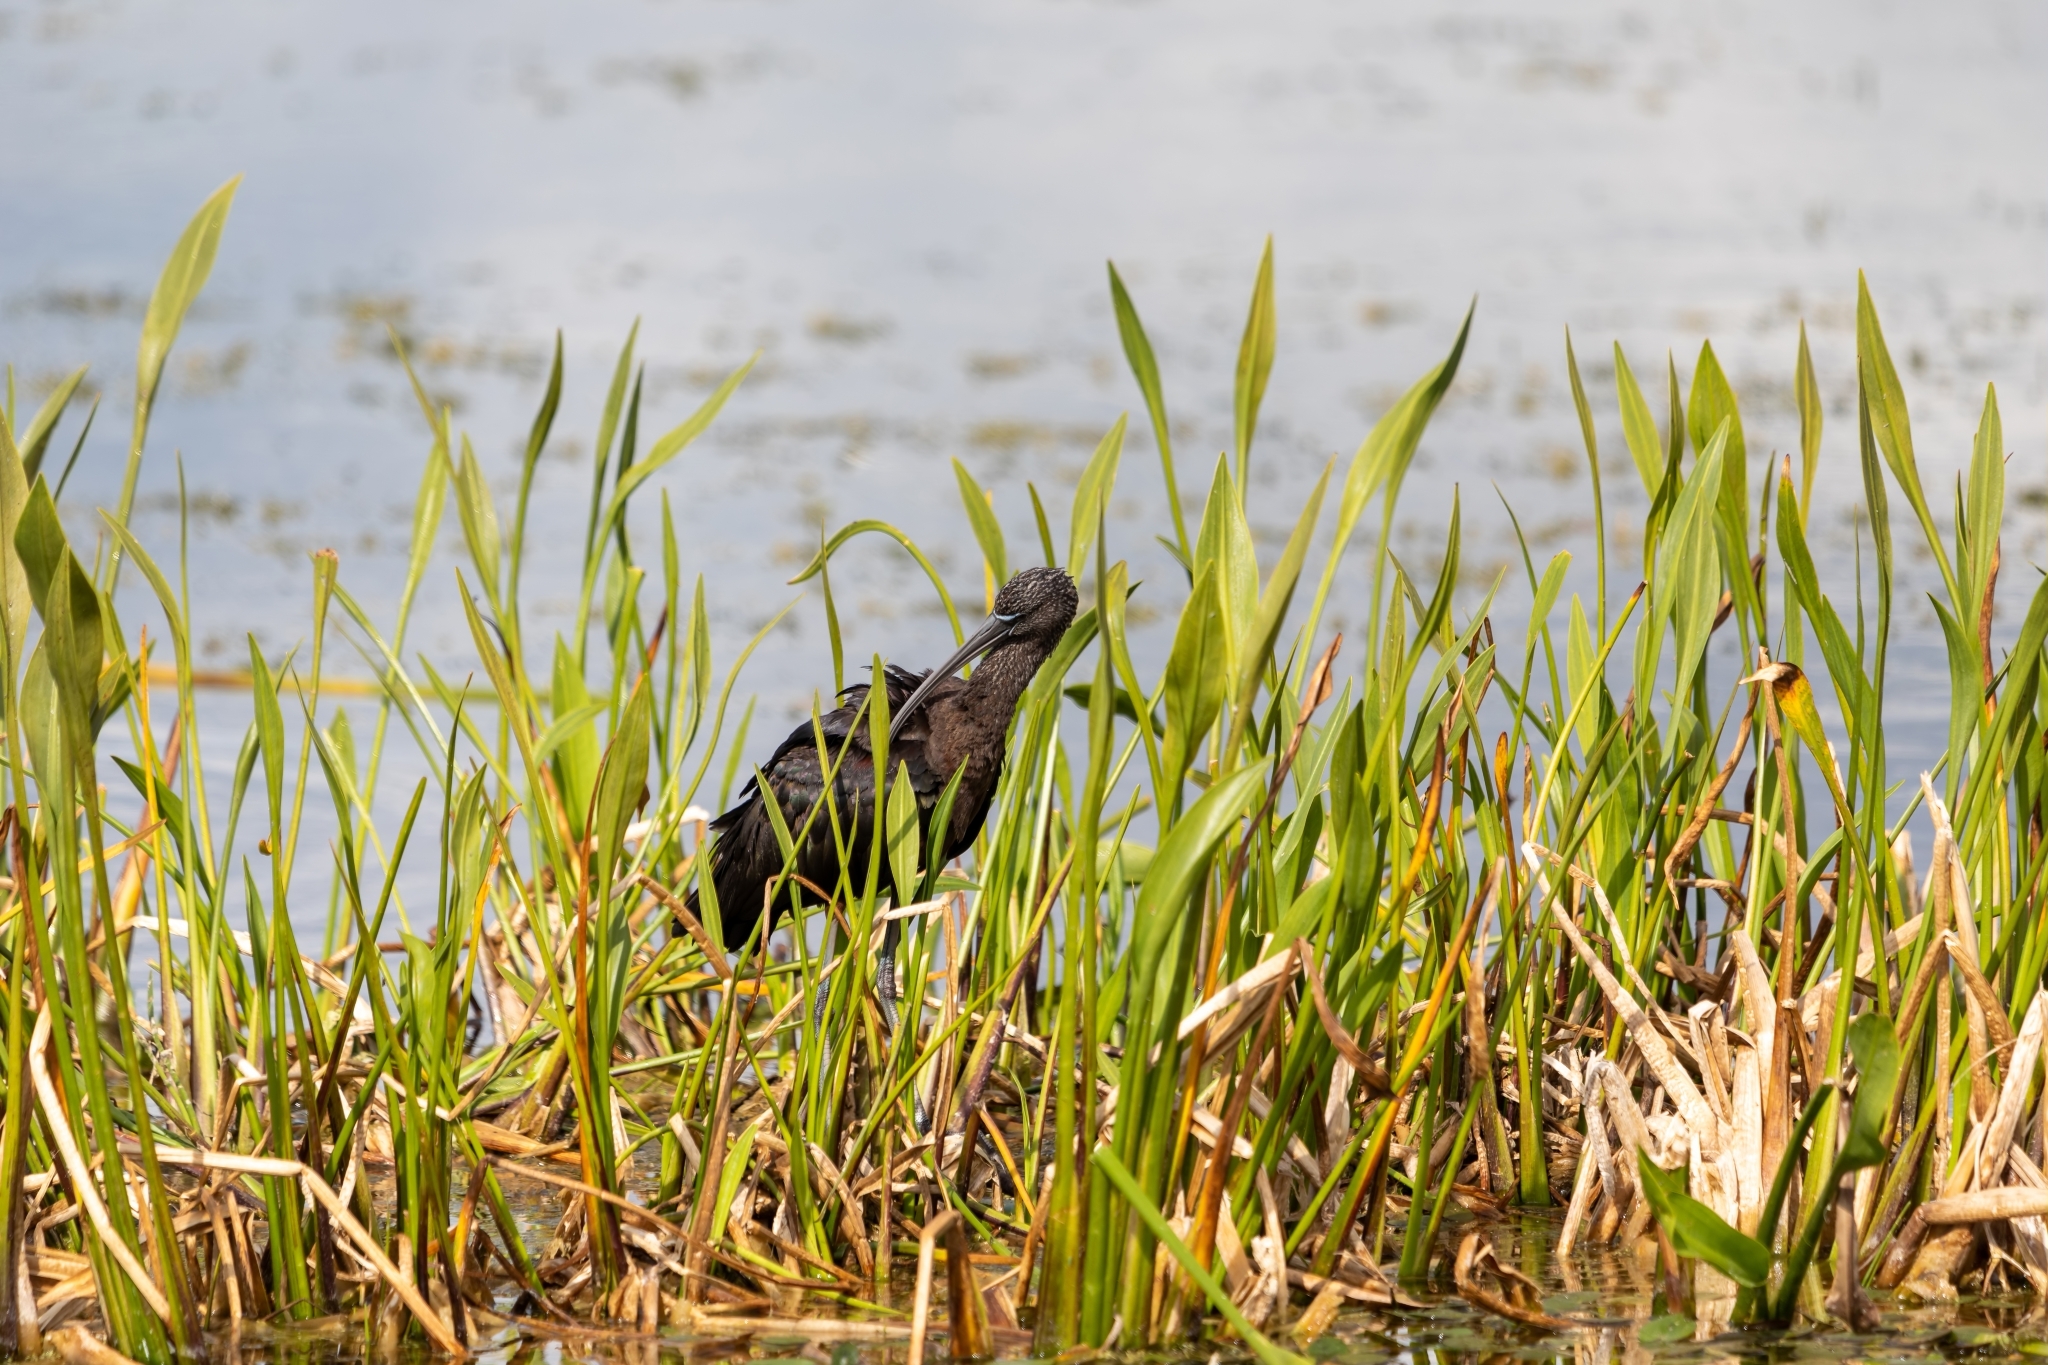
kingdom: Animalia
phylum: Chordata
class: Aves
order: Pelecaniformes
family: Threskiornithidae
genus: Plegadis
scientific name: Plegadis falcinellus
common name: Glossy ibis
